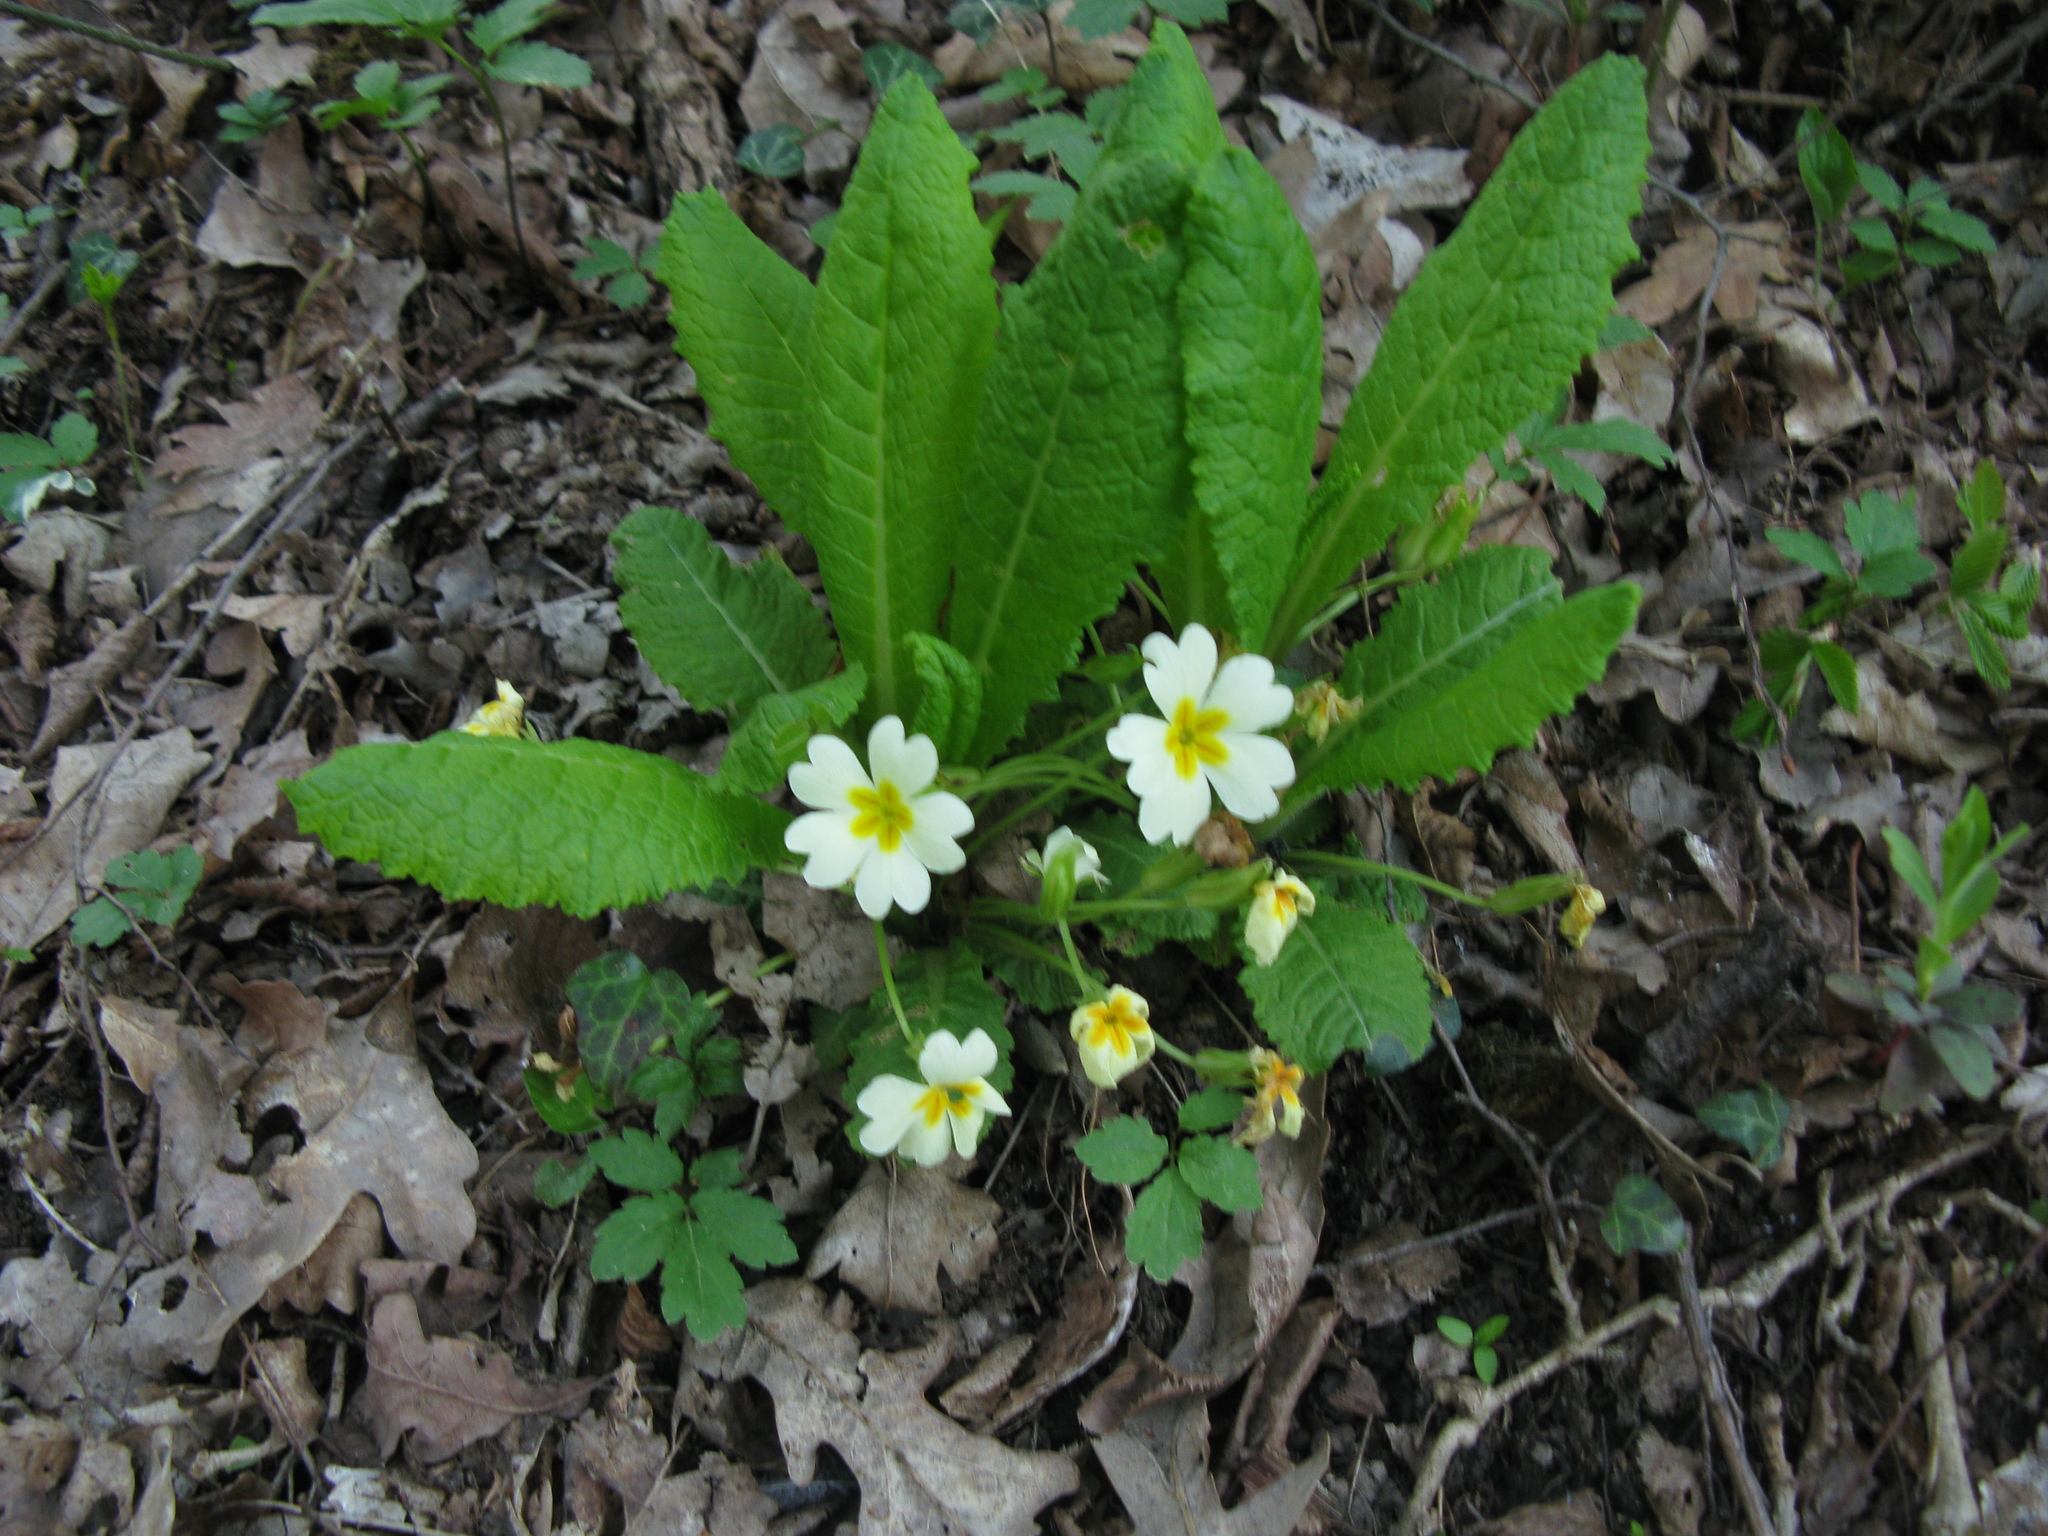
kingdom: Plantae
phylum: Tracheophyta
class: Magnoliopsida
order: Ericales
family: Primulaceae
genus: Primula
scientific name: Primula vulgaris
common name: Primrose
